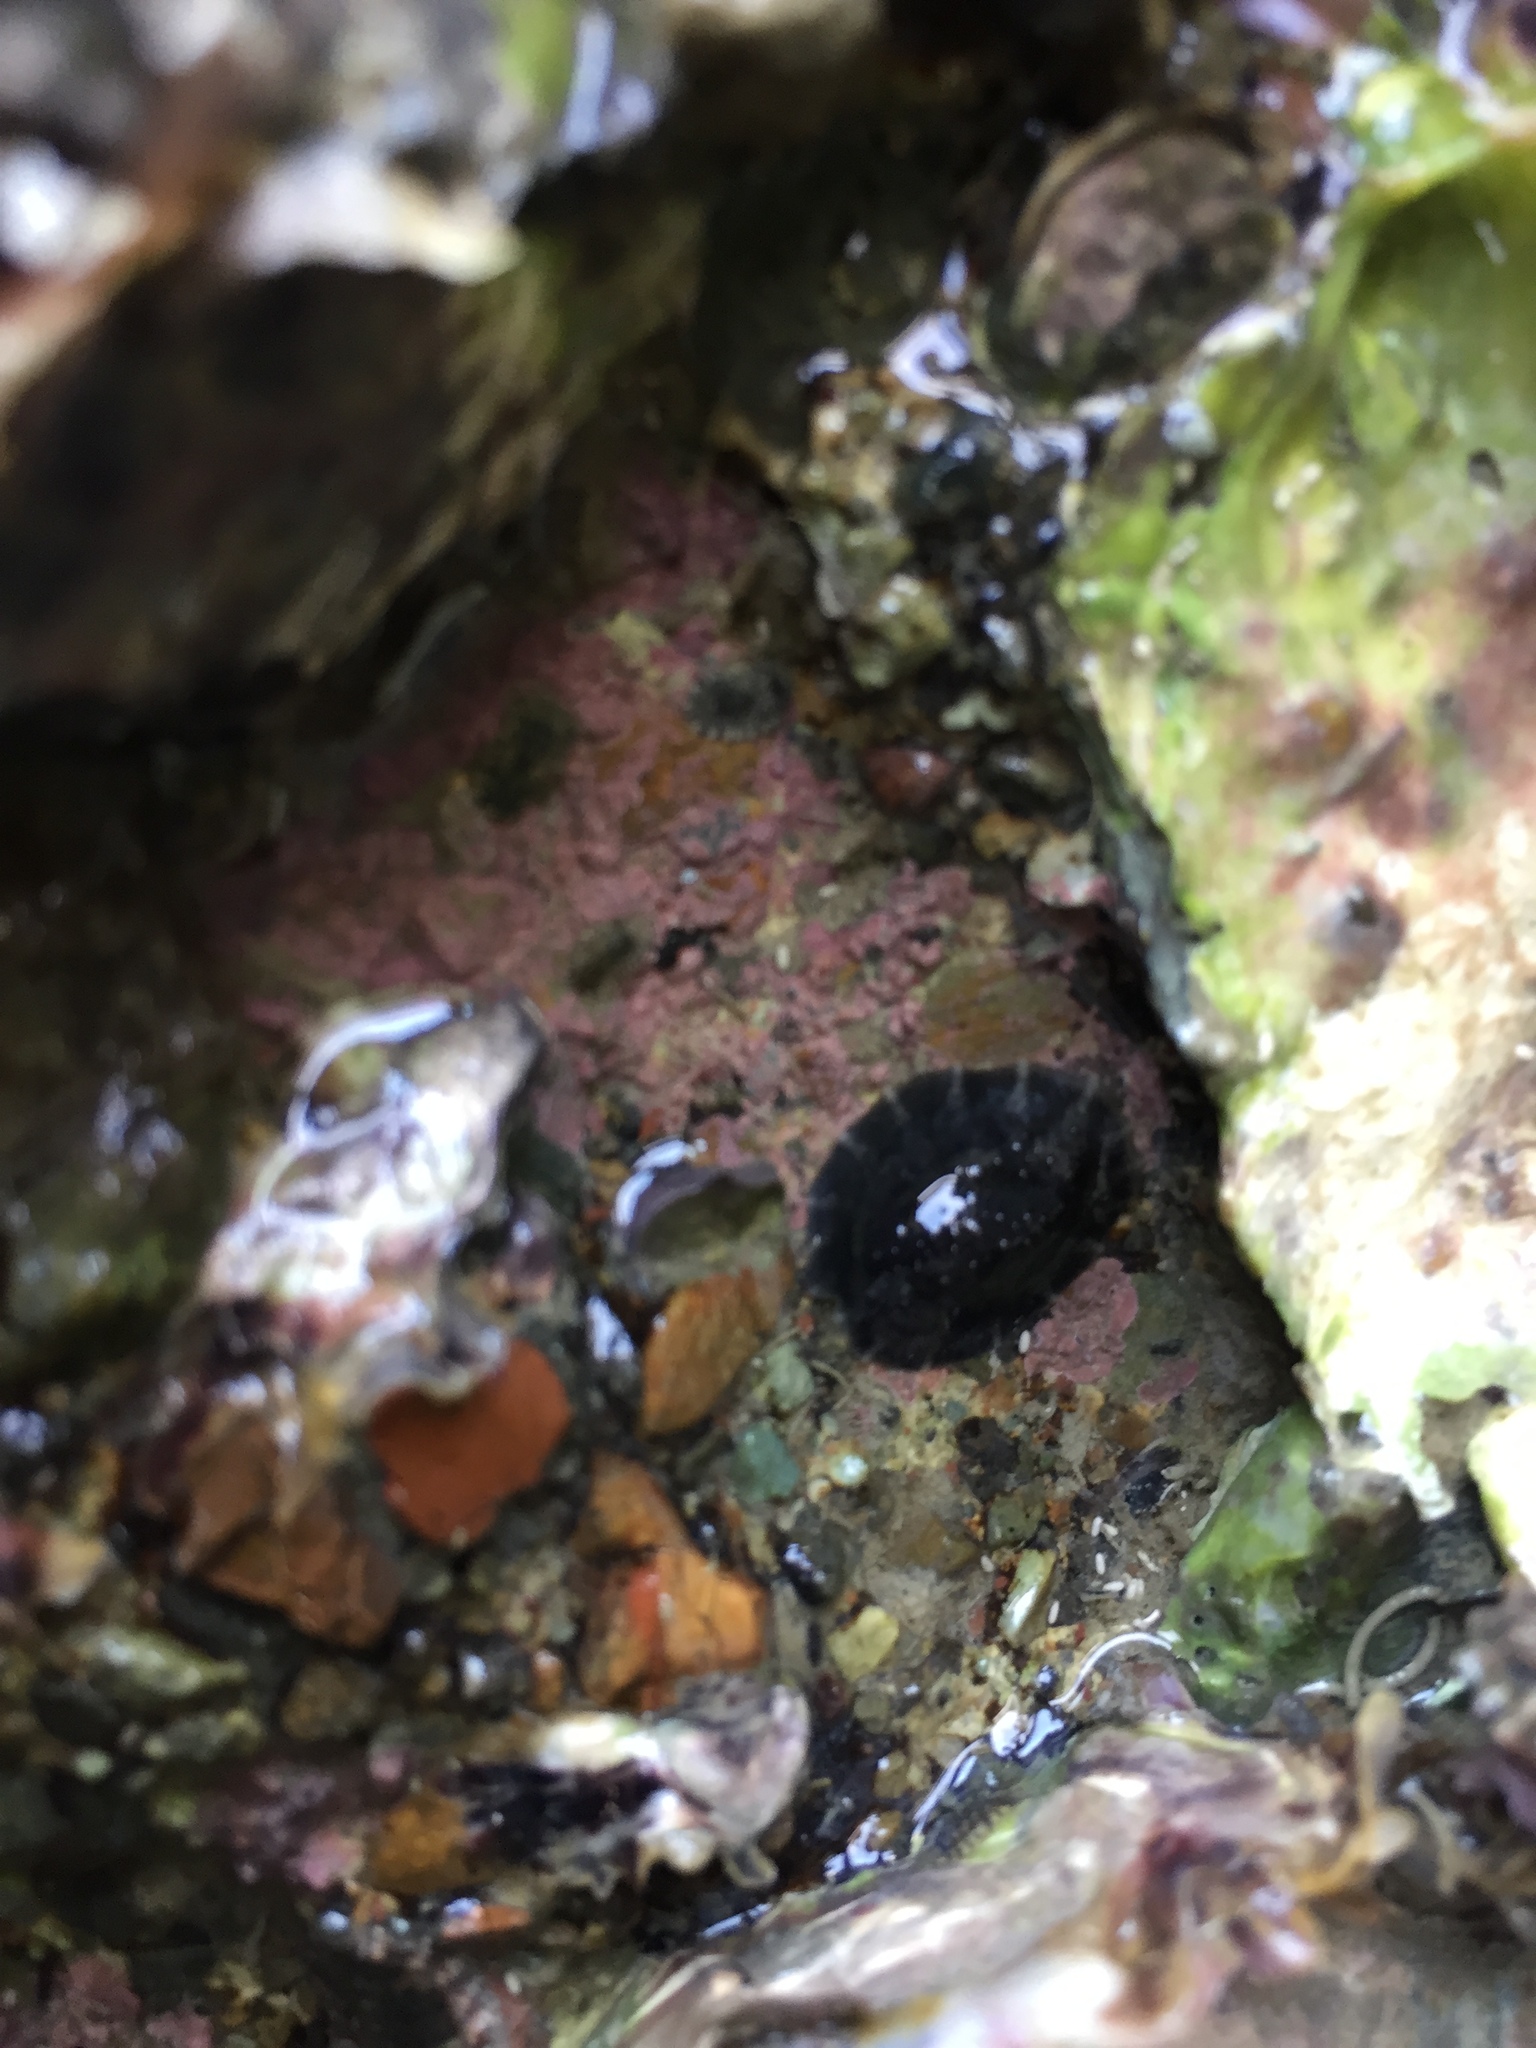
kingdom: Animalia
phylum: Mollusca
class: Gastropoda
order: Systellommatophora
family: Onchidiidae
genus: Onchidella
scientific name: Onchidella nigricans
